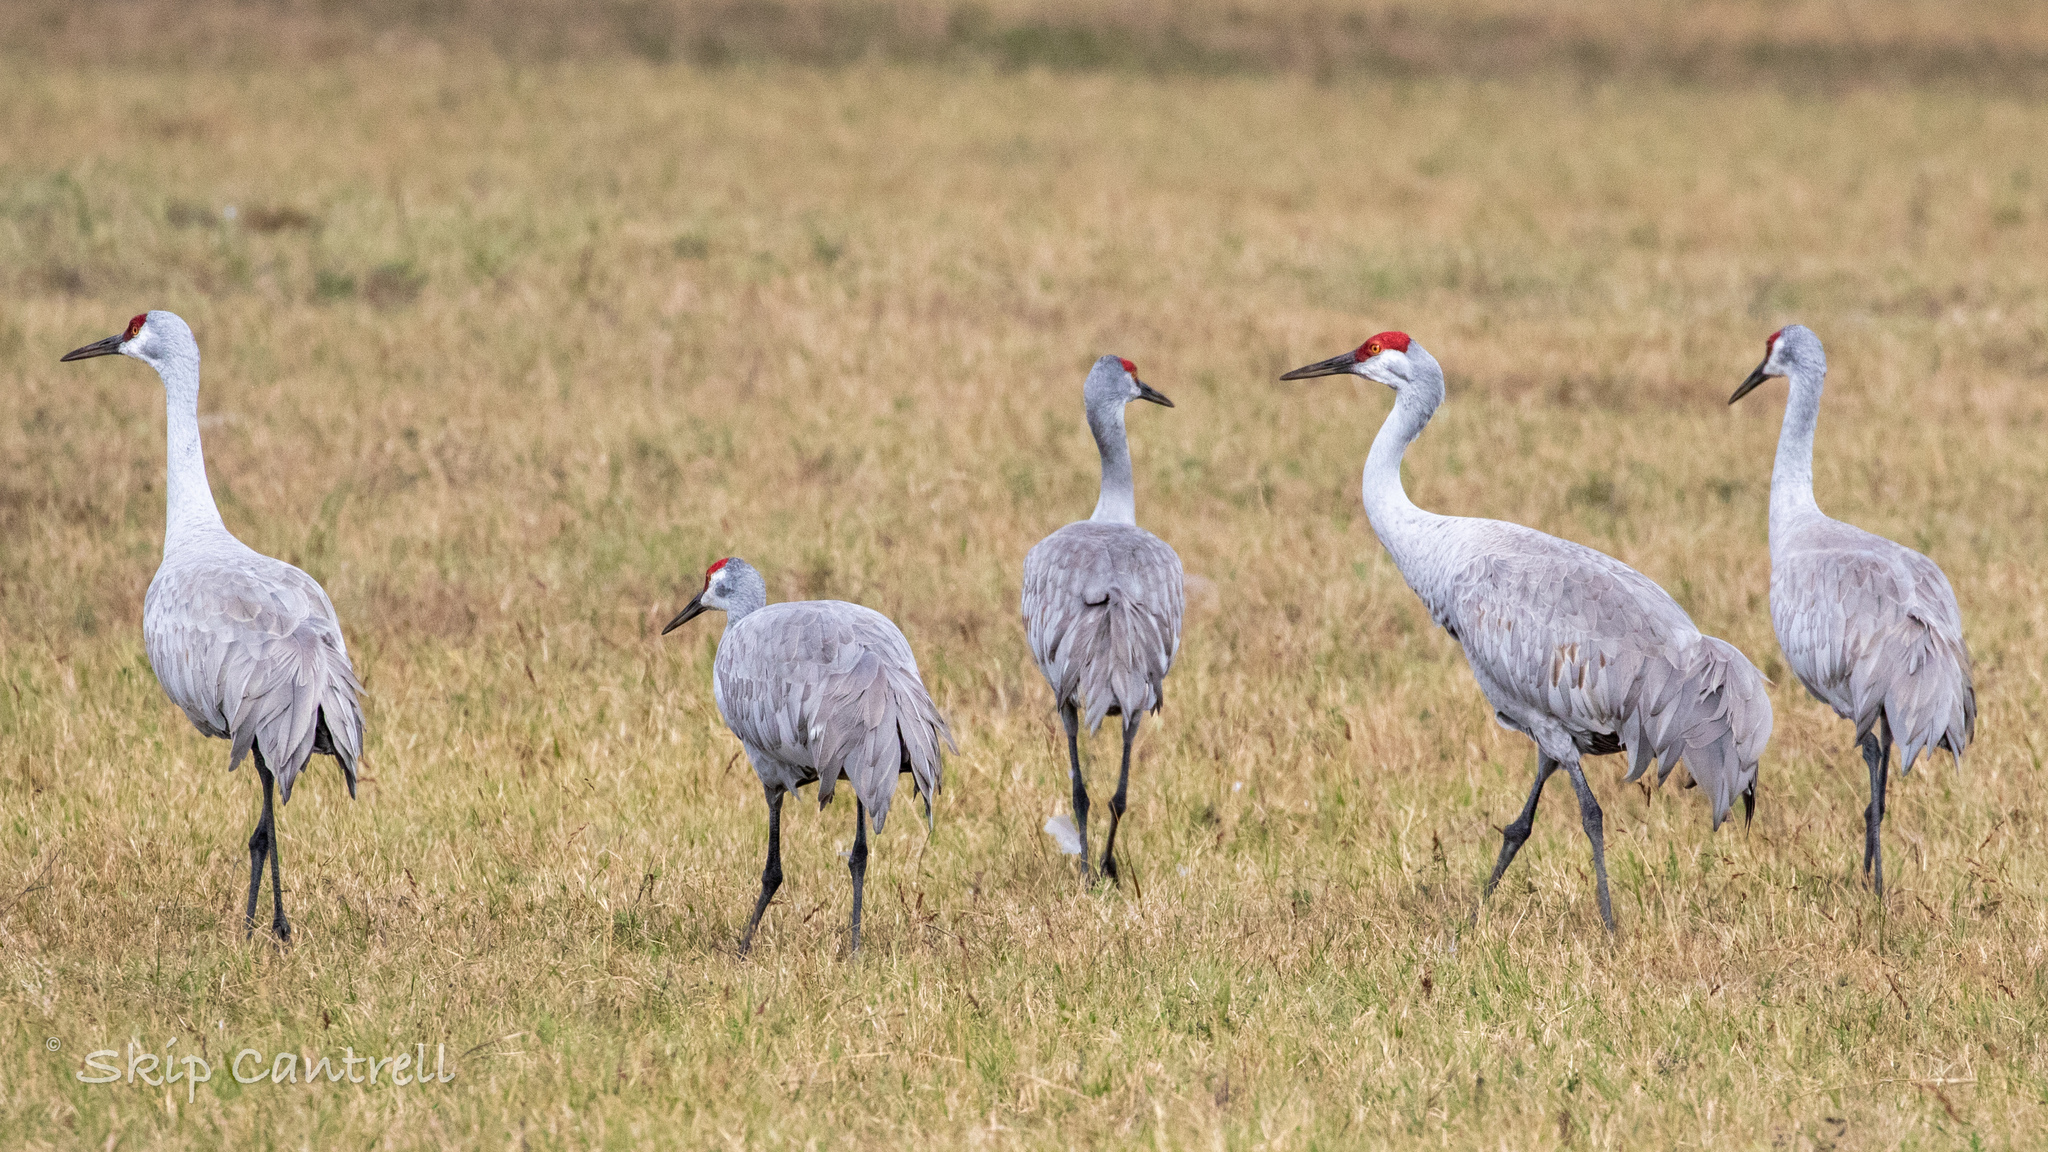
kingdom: Animalia
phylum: Chordata
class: Aves
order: Gruiformes
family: Gruidae
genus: Grus
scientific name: Grus canadensis
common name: Sandhill crane
